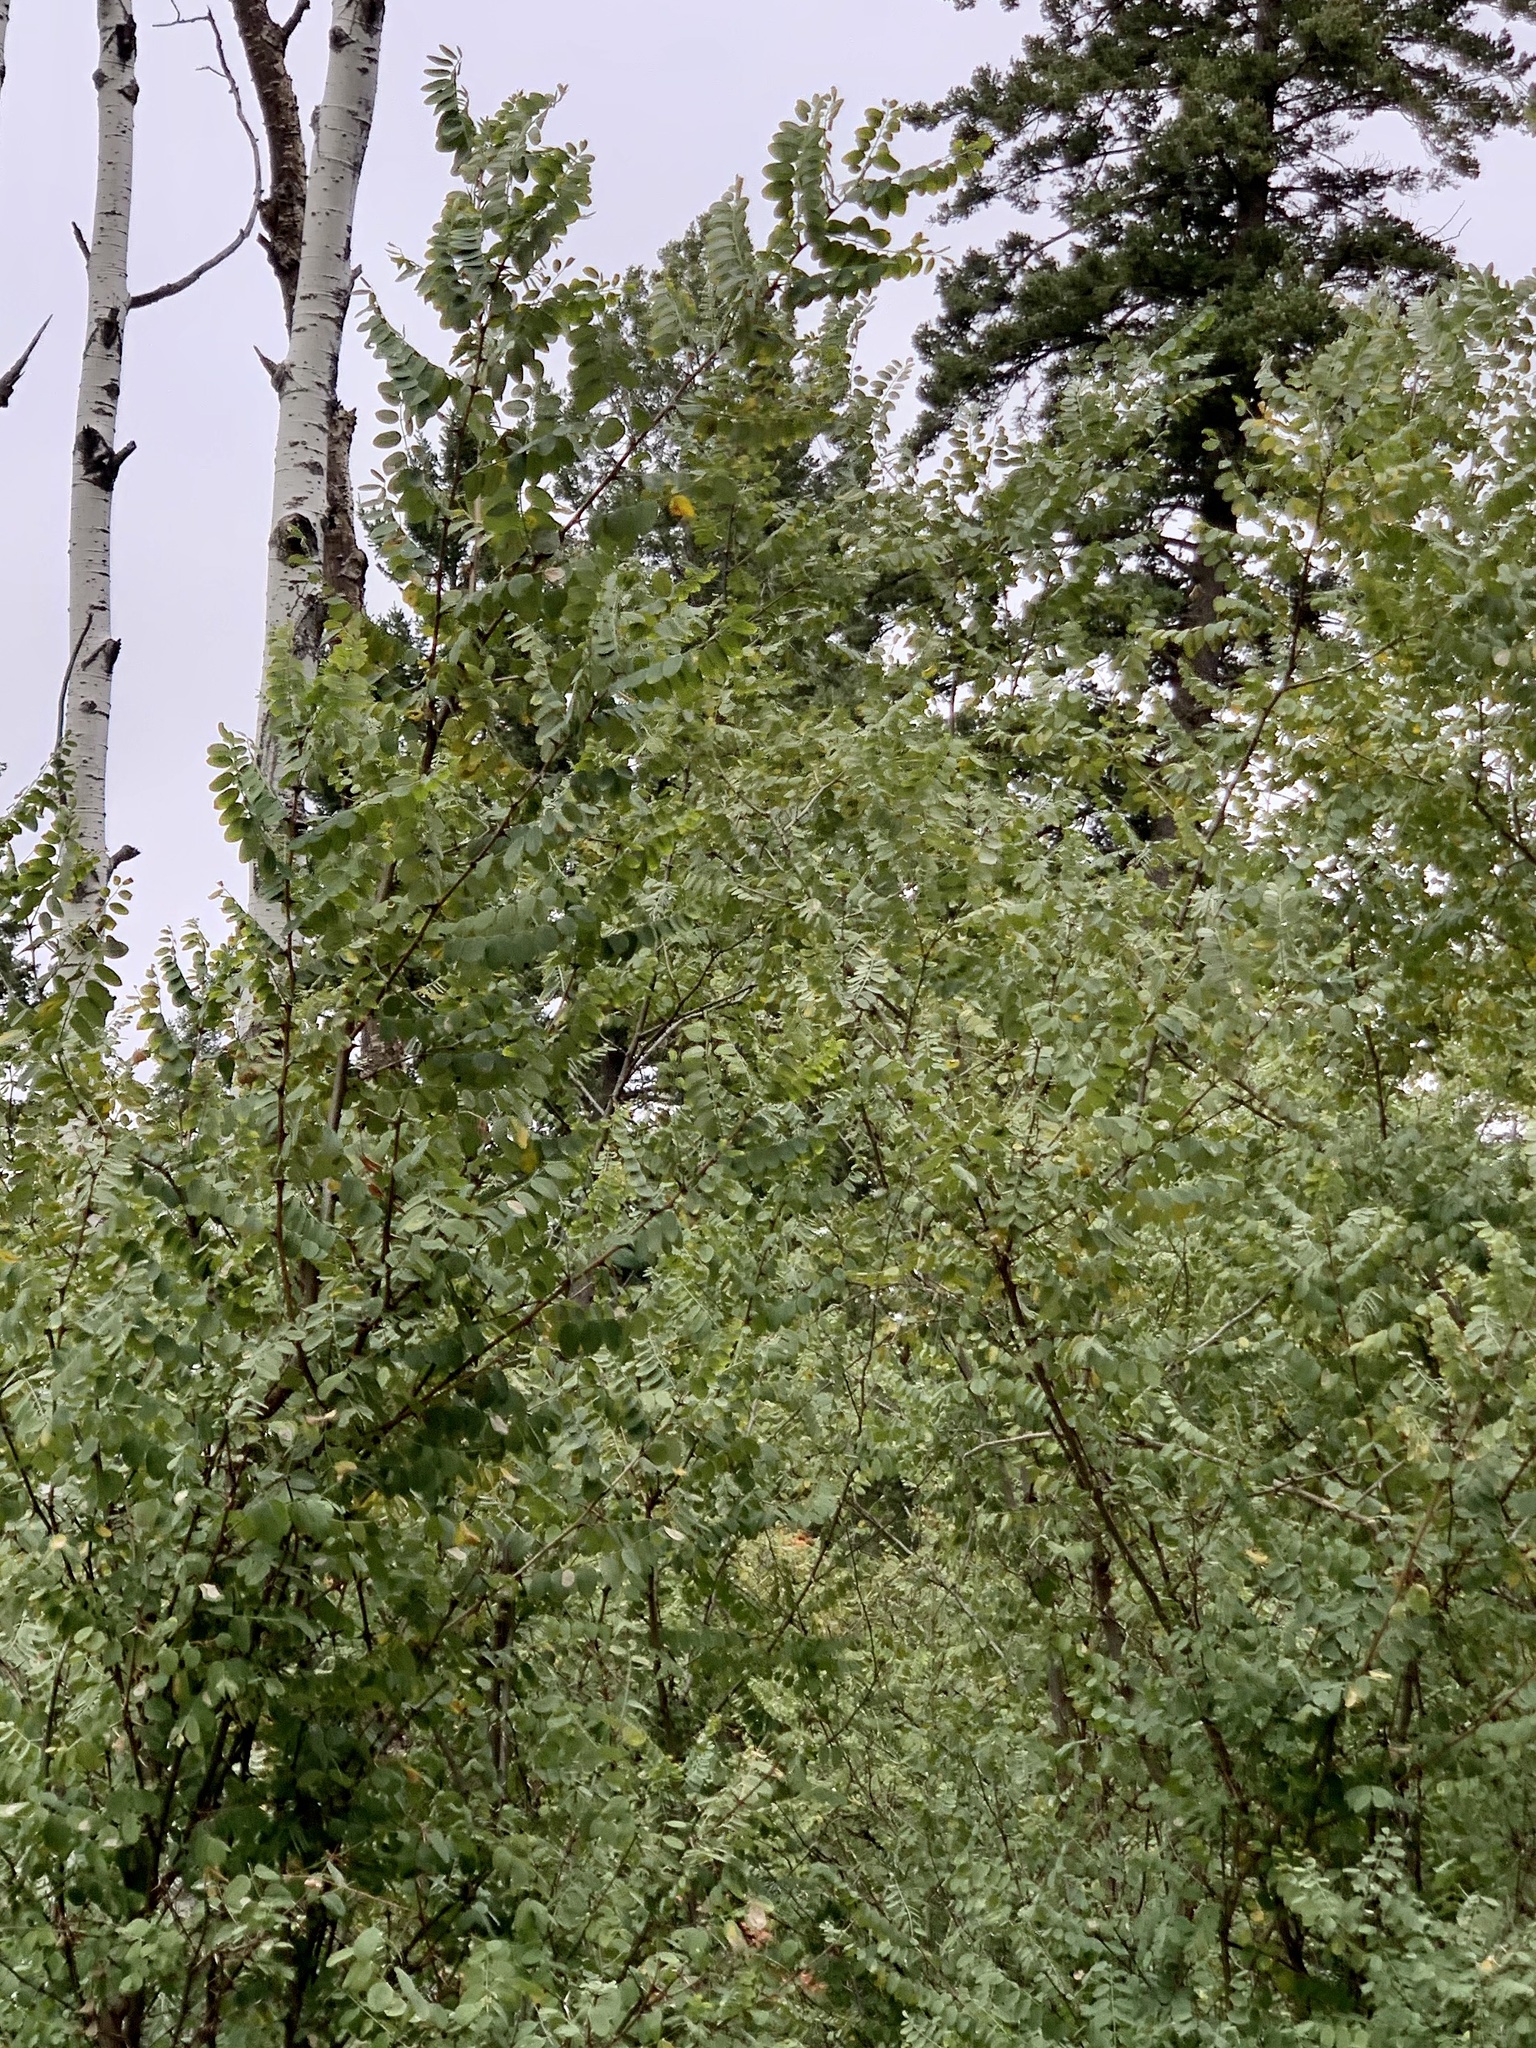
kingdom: Plantae
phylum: Tracheophyta
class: Magnoliopsida
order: Fabales
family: Fabaceae
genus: Robinia
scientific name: Robinia neomexicana
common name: New mexico locust
